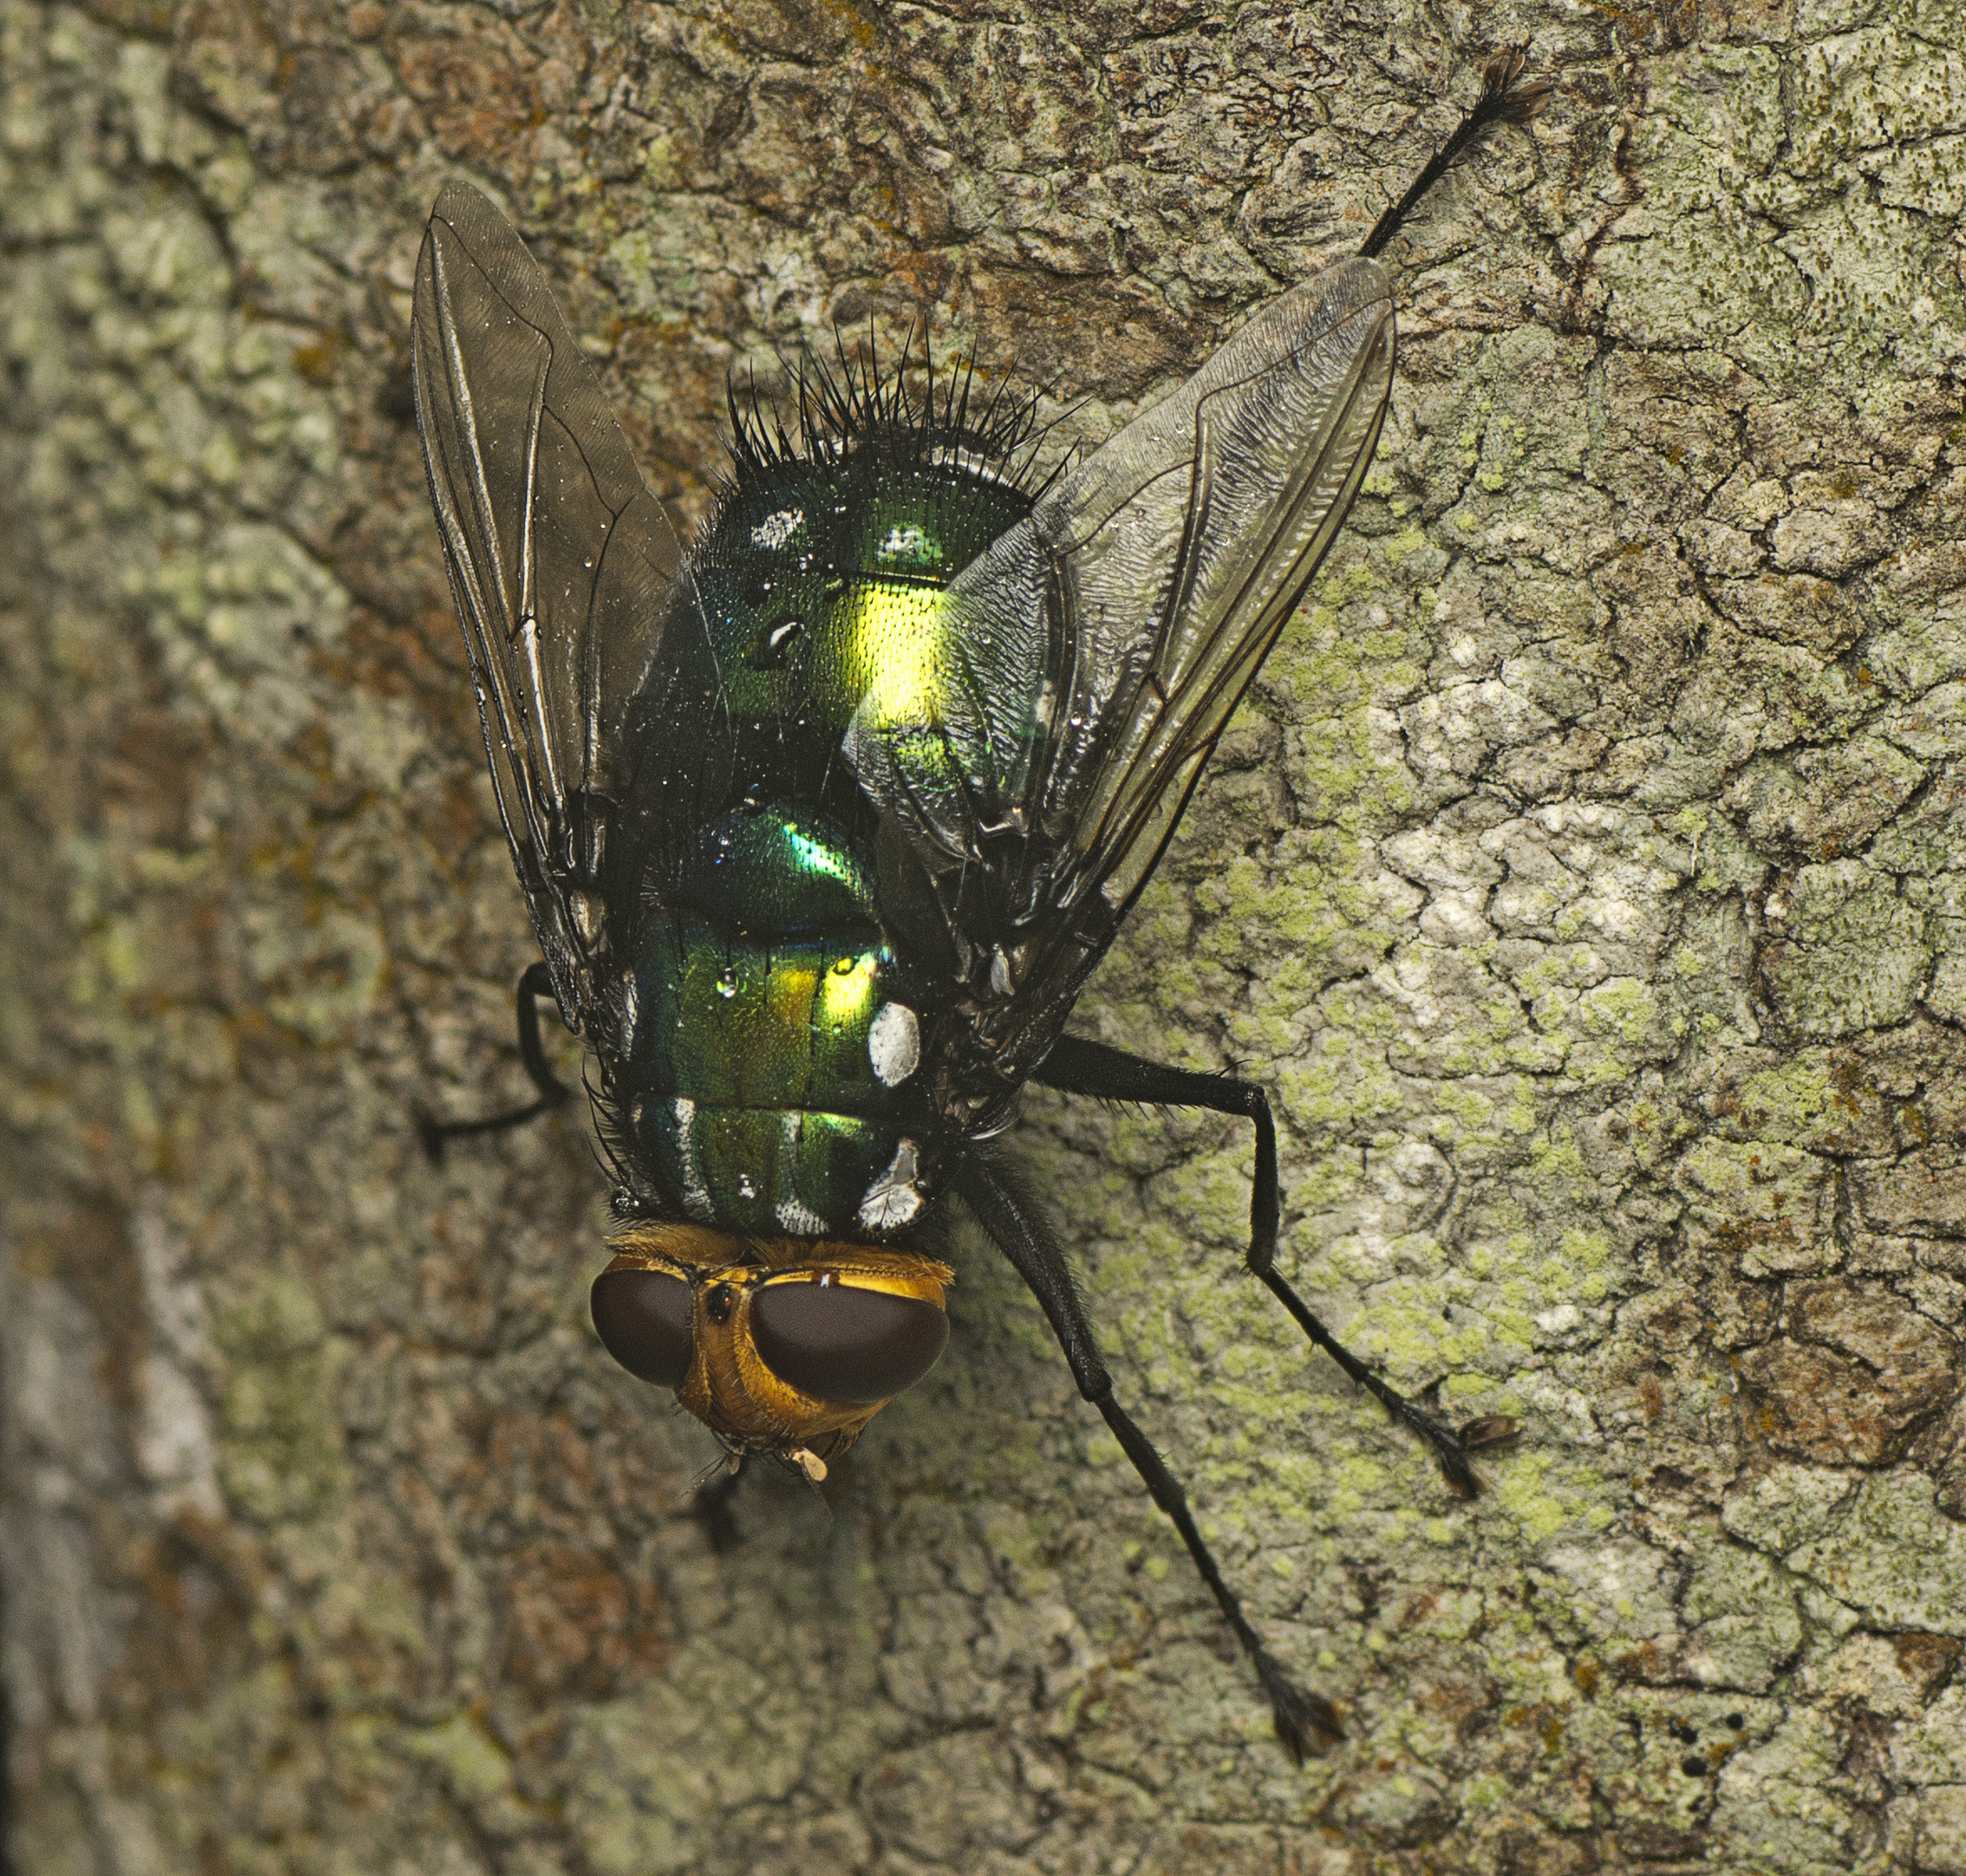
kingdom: Animalia
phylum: Arthropoda
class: Insecta
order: Diptera
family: Tachinidae
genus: Rutilia
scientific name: Rutilia argentifera
